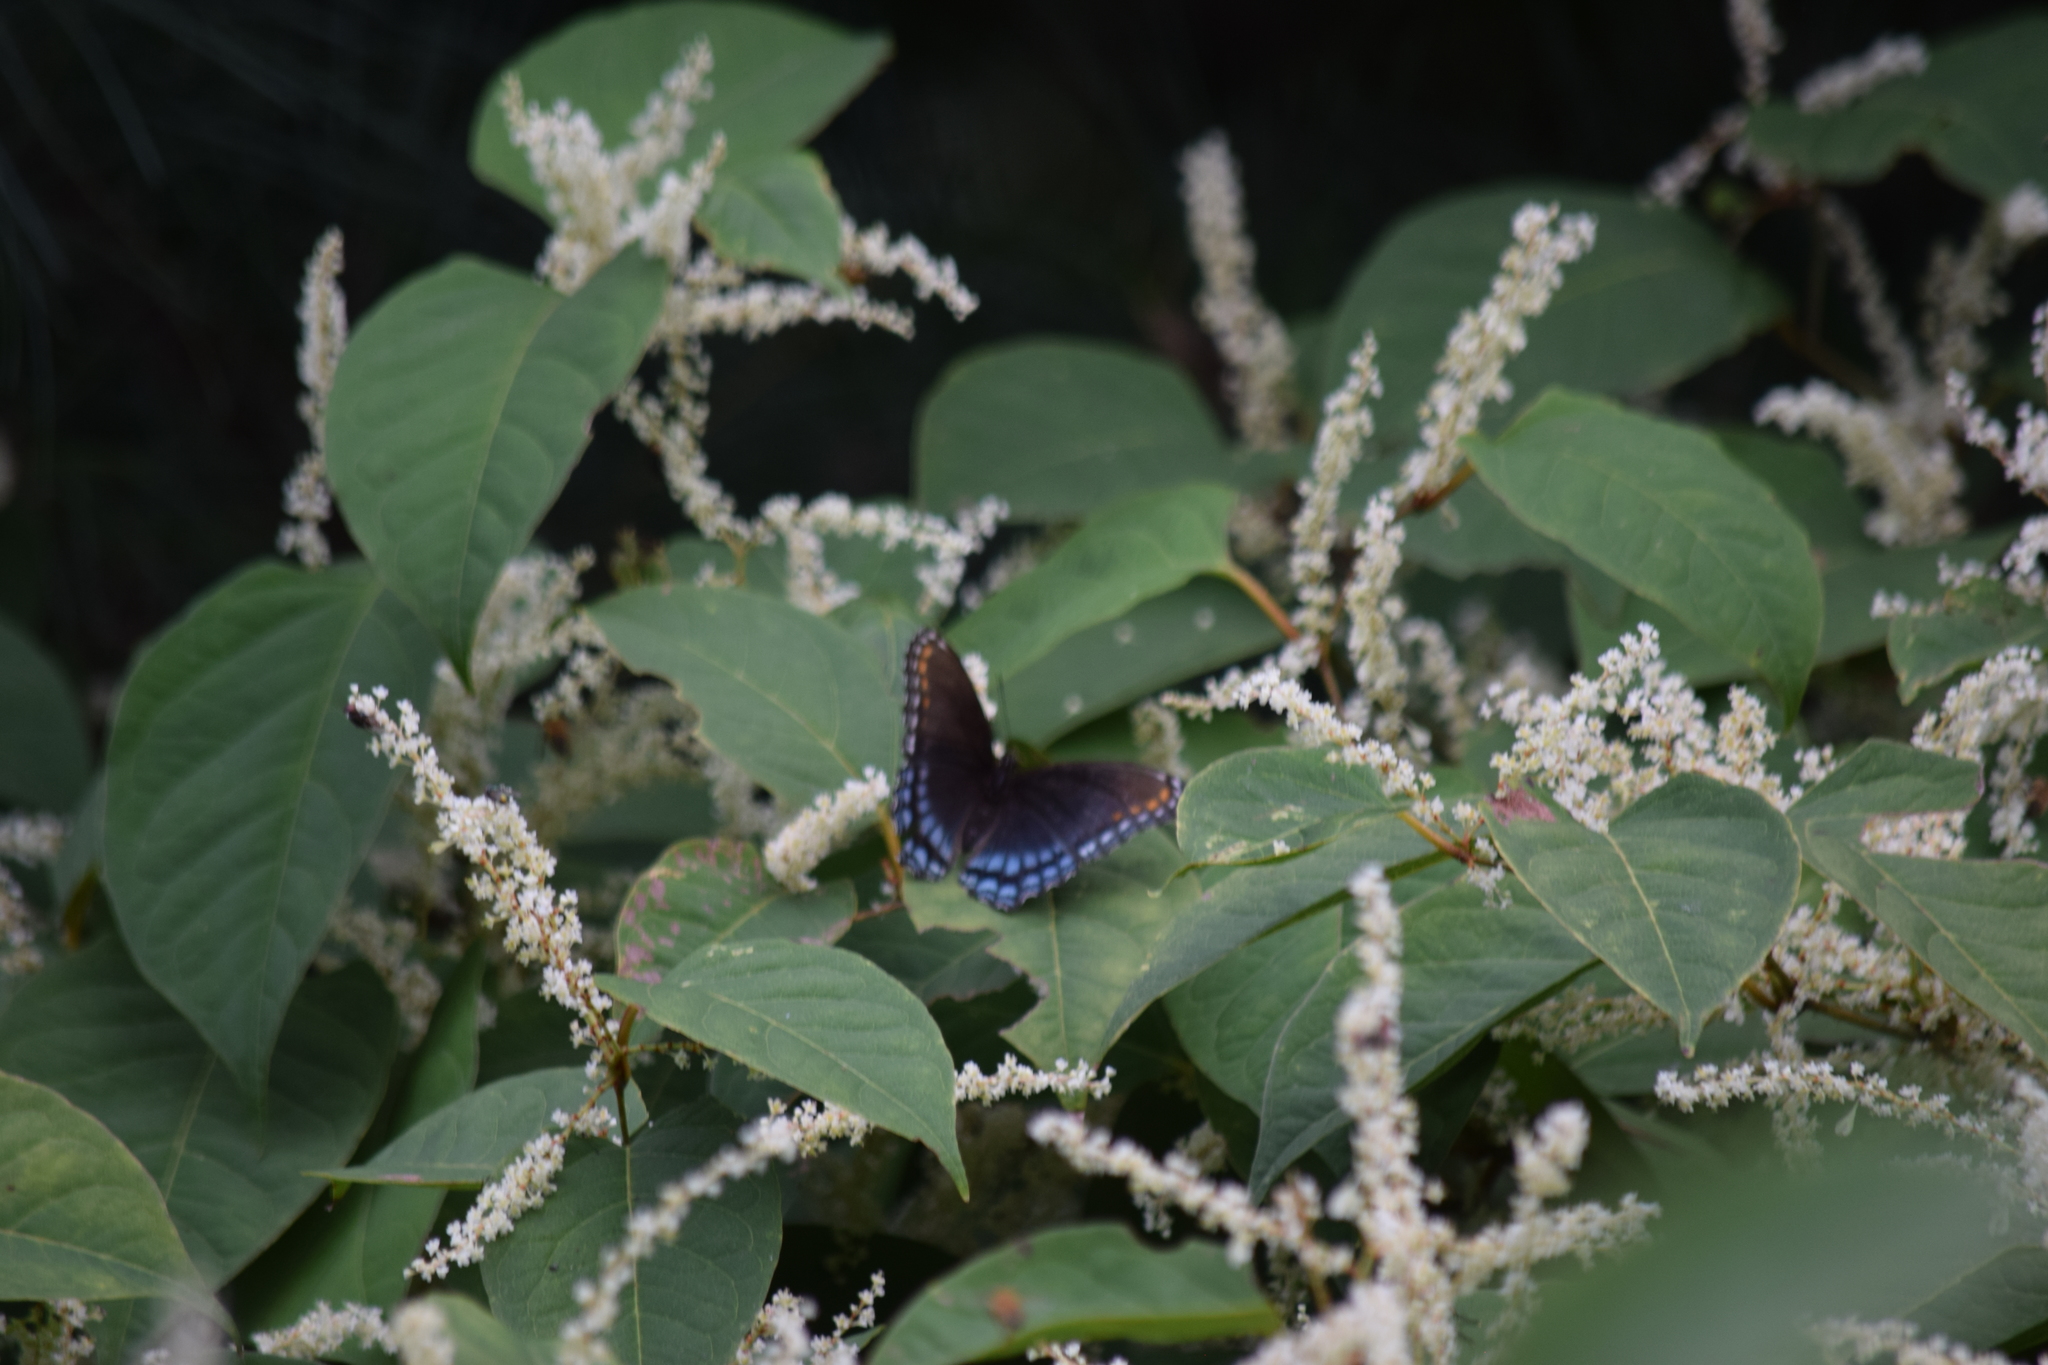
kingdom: Animalia
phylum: Arthropoda
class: Insecta
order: Lepidoptera
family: Nymphalidae
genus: Limenitis
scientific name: Limenitis astyanax
